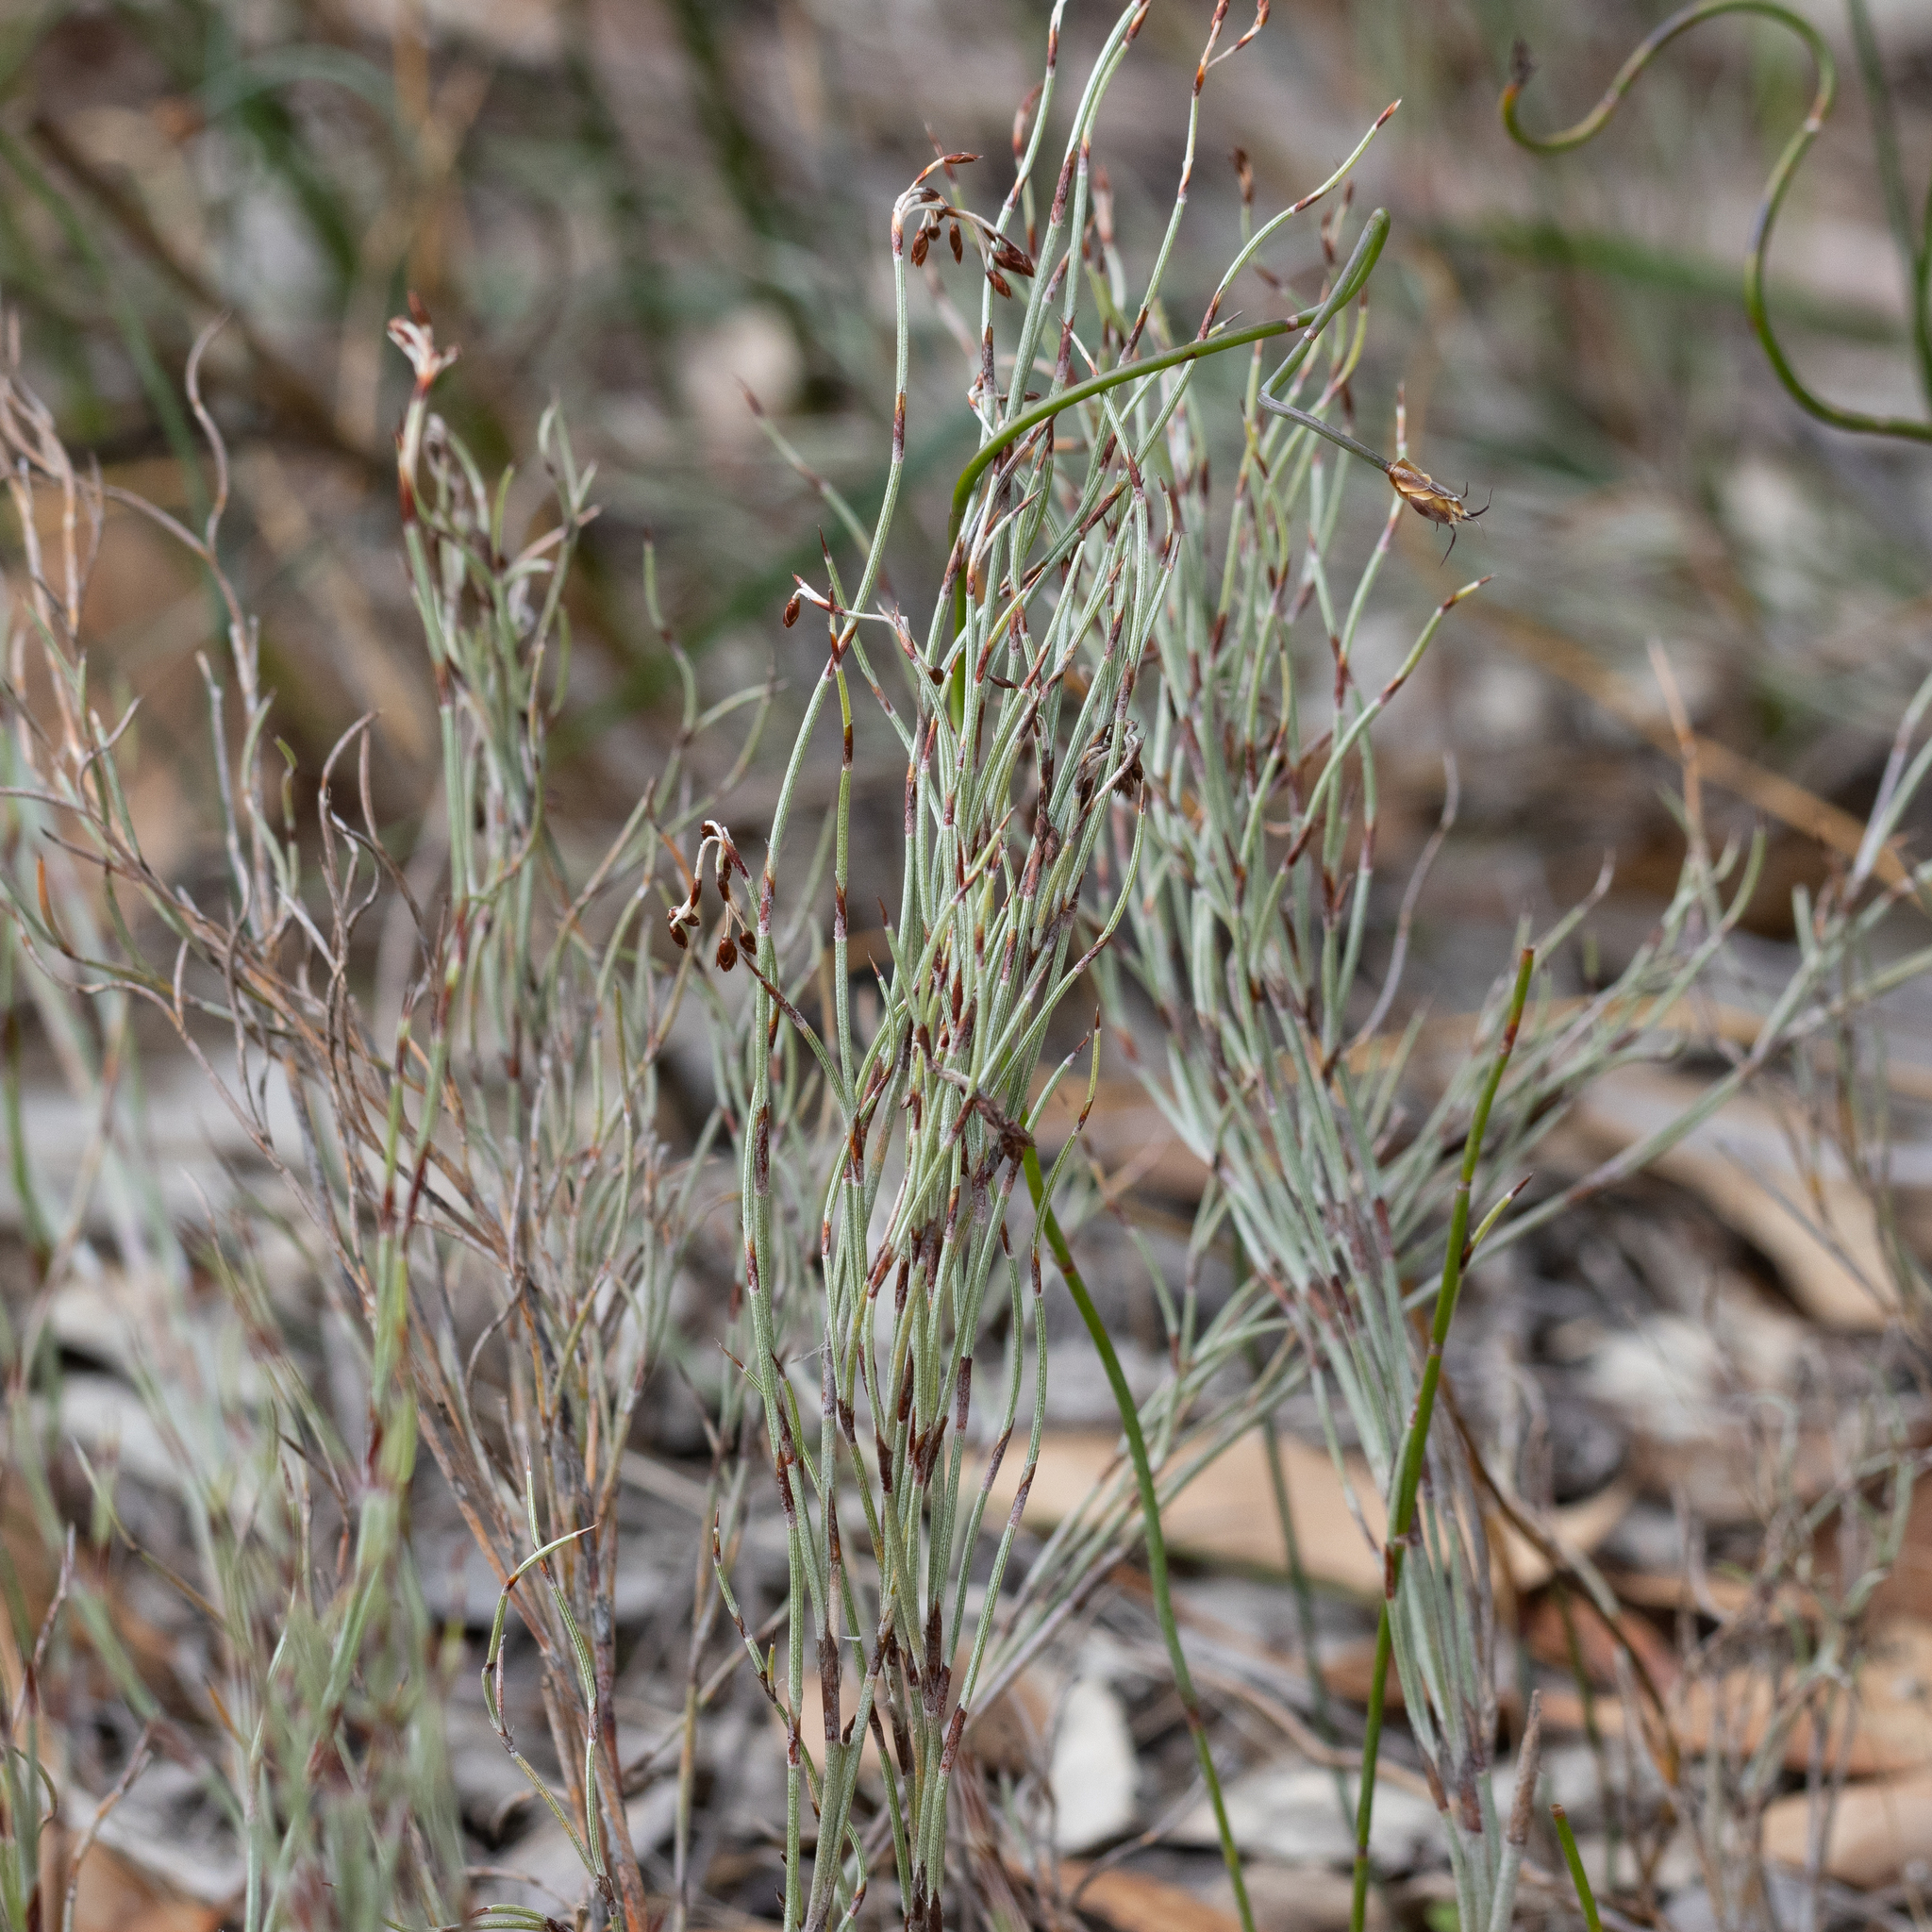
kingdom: Plantae
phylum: Tracheophyta
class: Liliopsida
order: Poales
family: Restionaceae
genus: Hypolaena
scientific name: Hypolaena fastigiata
